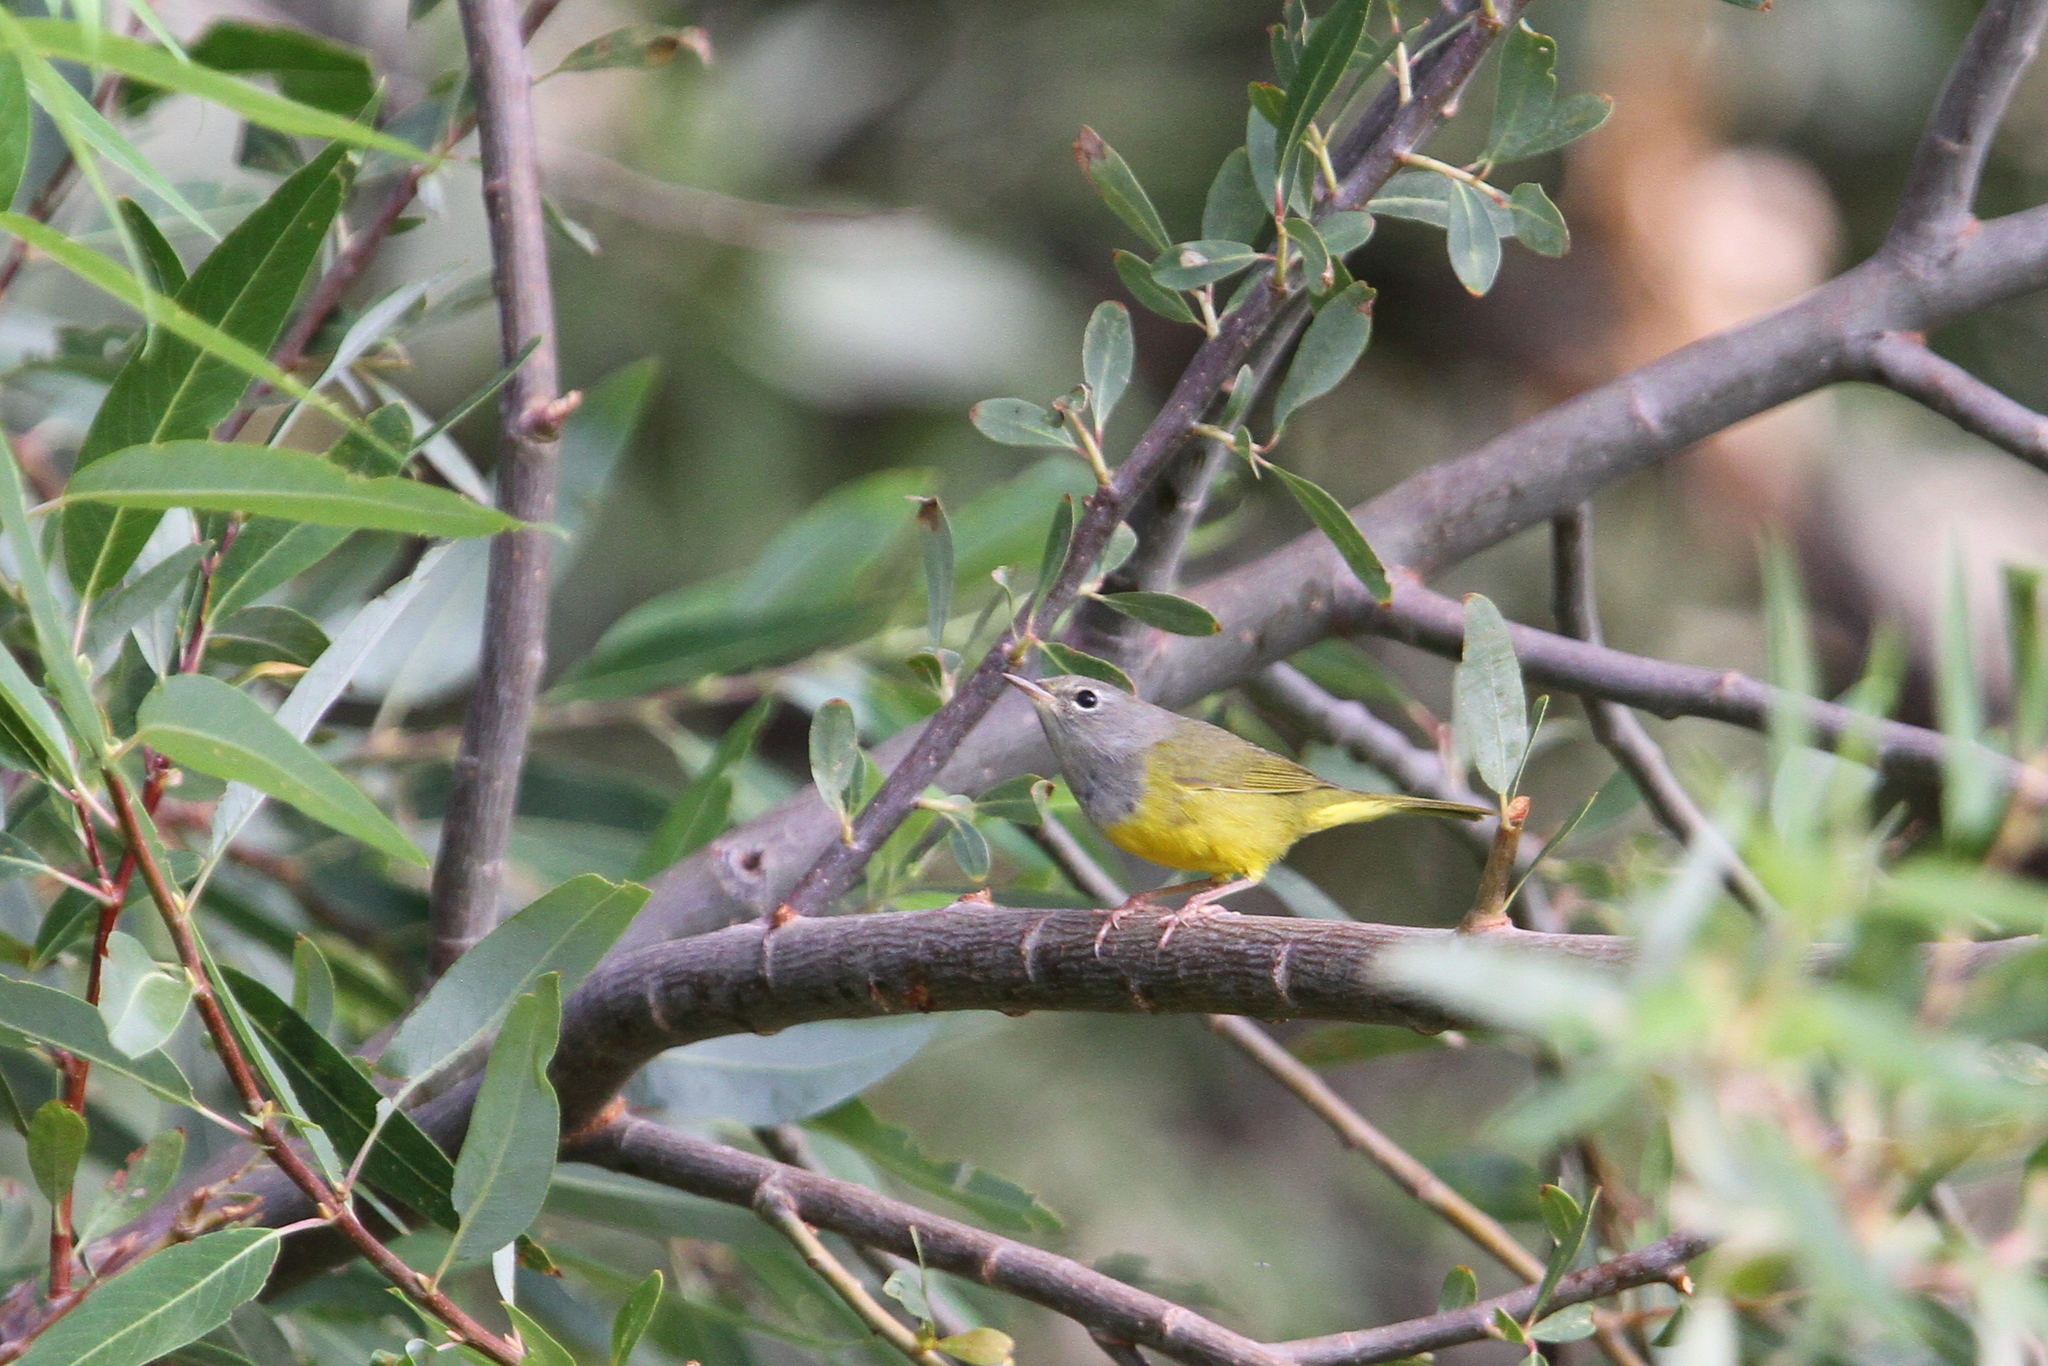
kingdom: Animalia
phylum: Chordata
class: Aves
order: Passeriformes
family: Parulidae
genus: Geothlypis
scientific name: Geothlypis tolmiei
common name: Macgillivray's warbler
